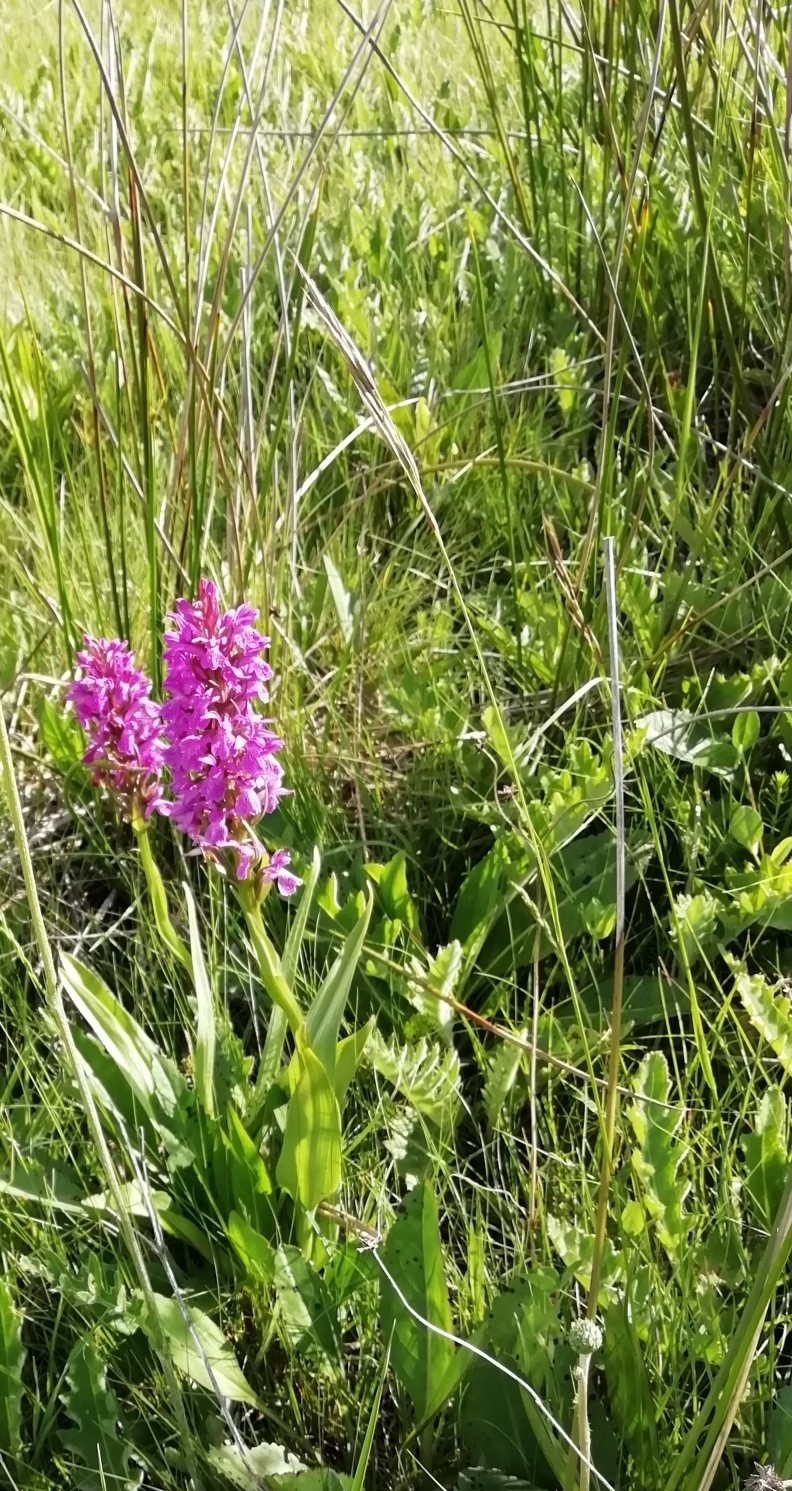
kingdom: Plantae
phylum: Tracheophyta
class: Liliopsida
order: Asparagales
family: Orchidaceae
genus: Dactylorhiza
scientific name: Dactylorhiza elata
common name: Stately dactylorhiza
